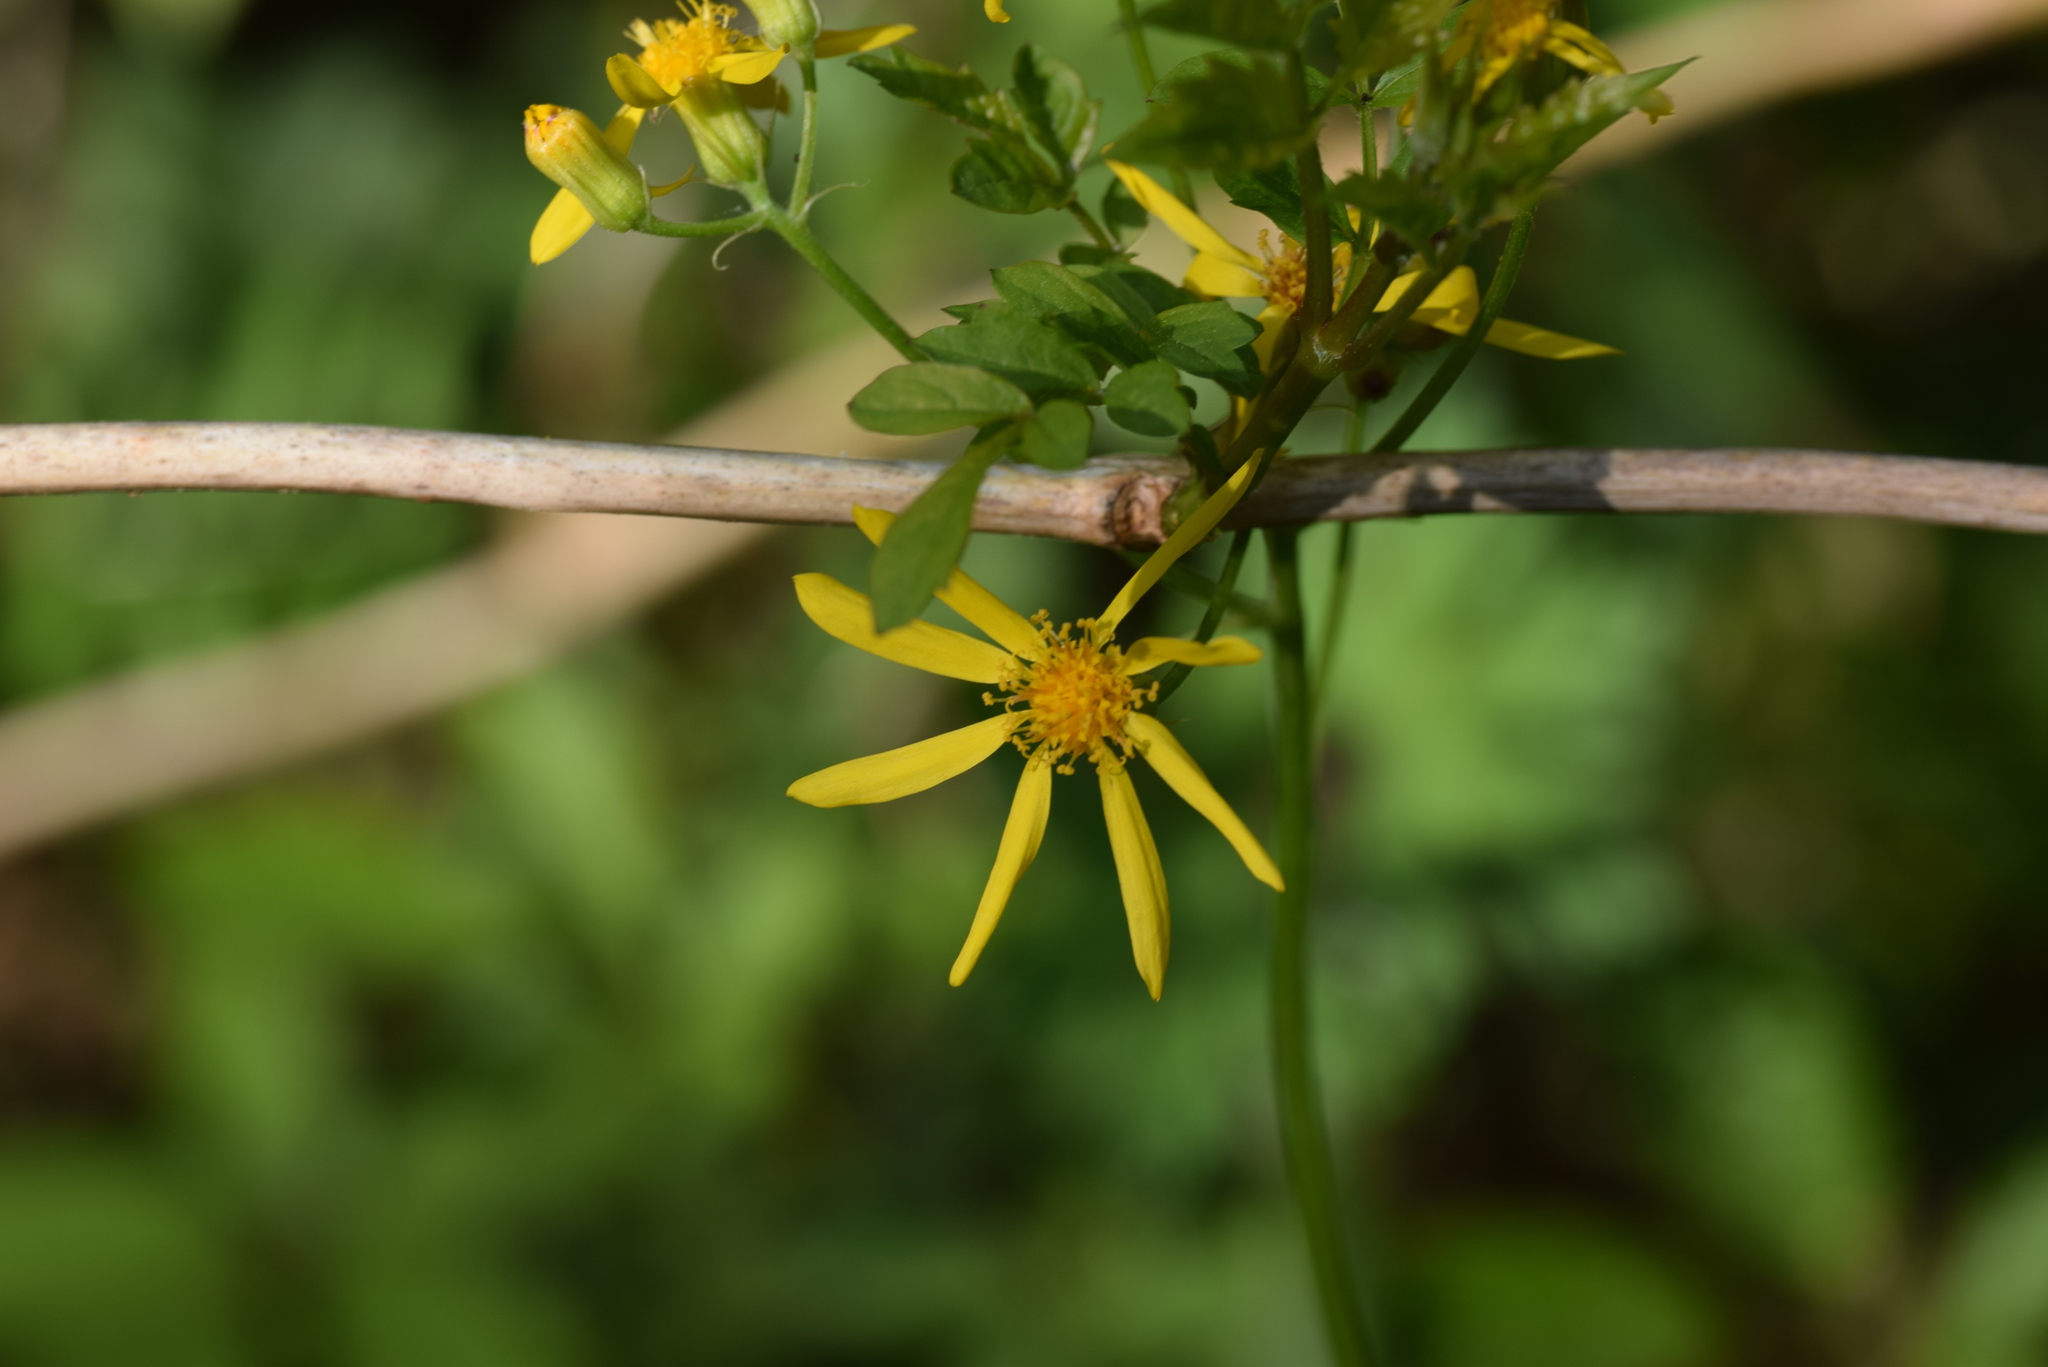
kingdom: Plantae
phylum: Tracheophyta
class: Magnoliopsida
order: Asterales
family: Asteraceae
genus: Senecio
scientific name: Senecio ampullaceus
